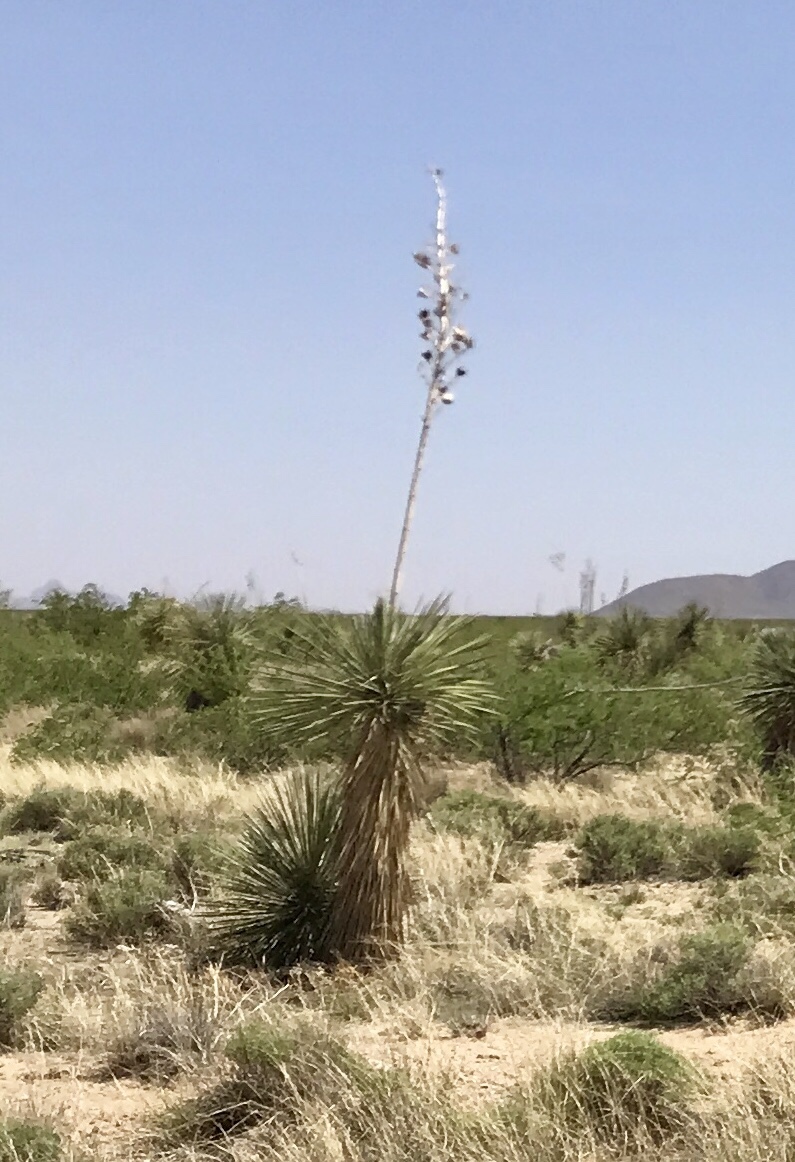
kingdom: Plantae
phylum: Tracheophyta
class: Liliopsida
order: Asparagales
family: Asparagaceae
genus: Yucca
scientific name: Yucca elata
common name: Palmella
